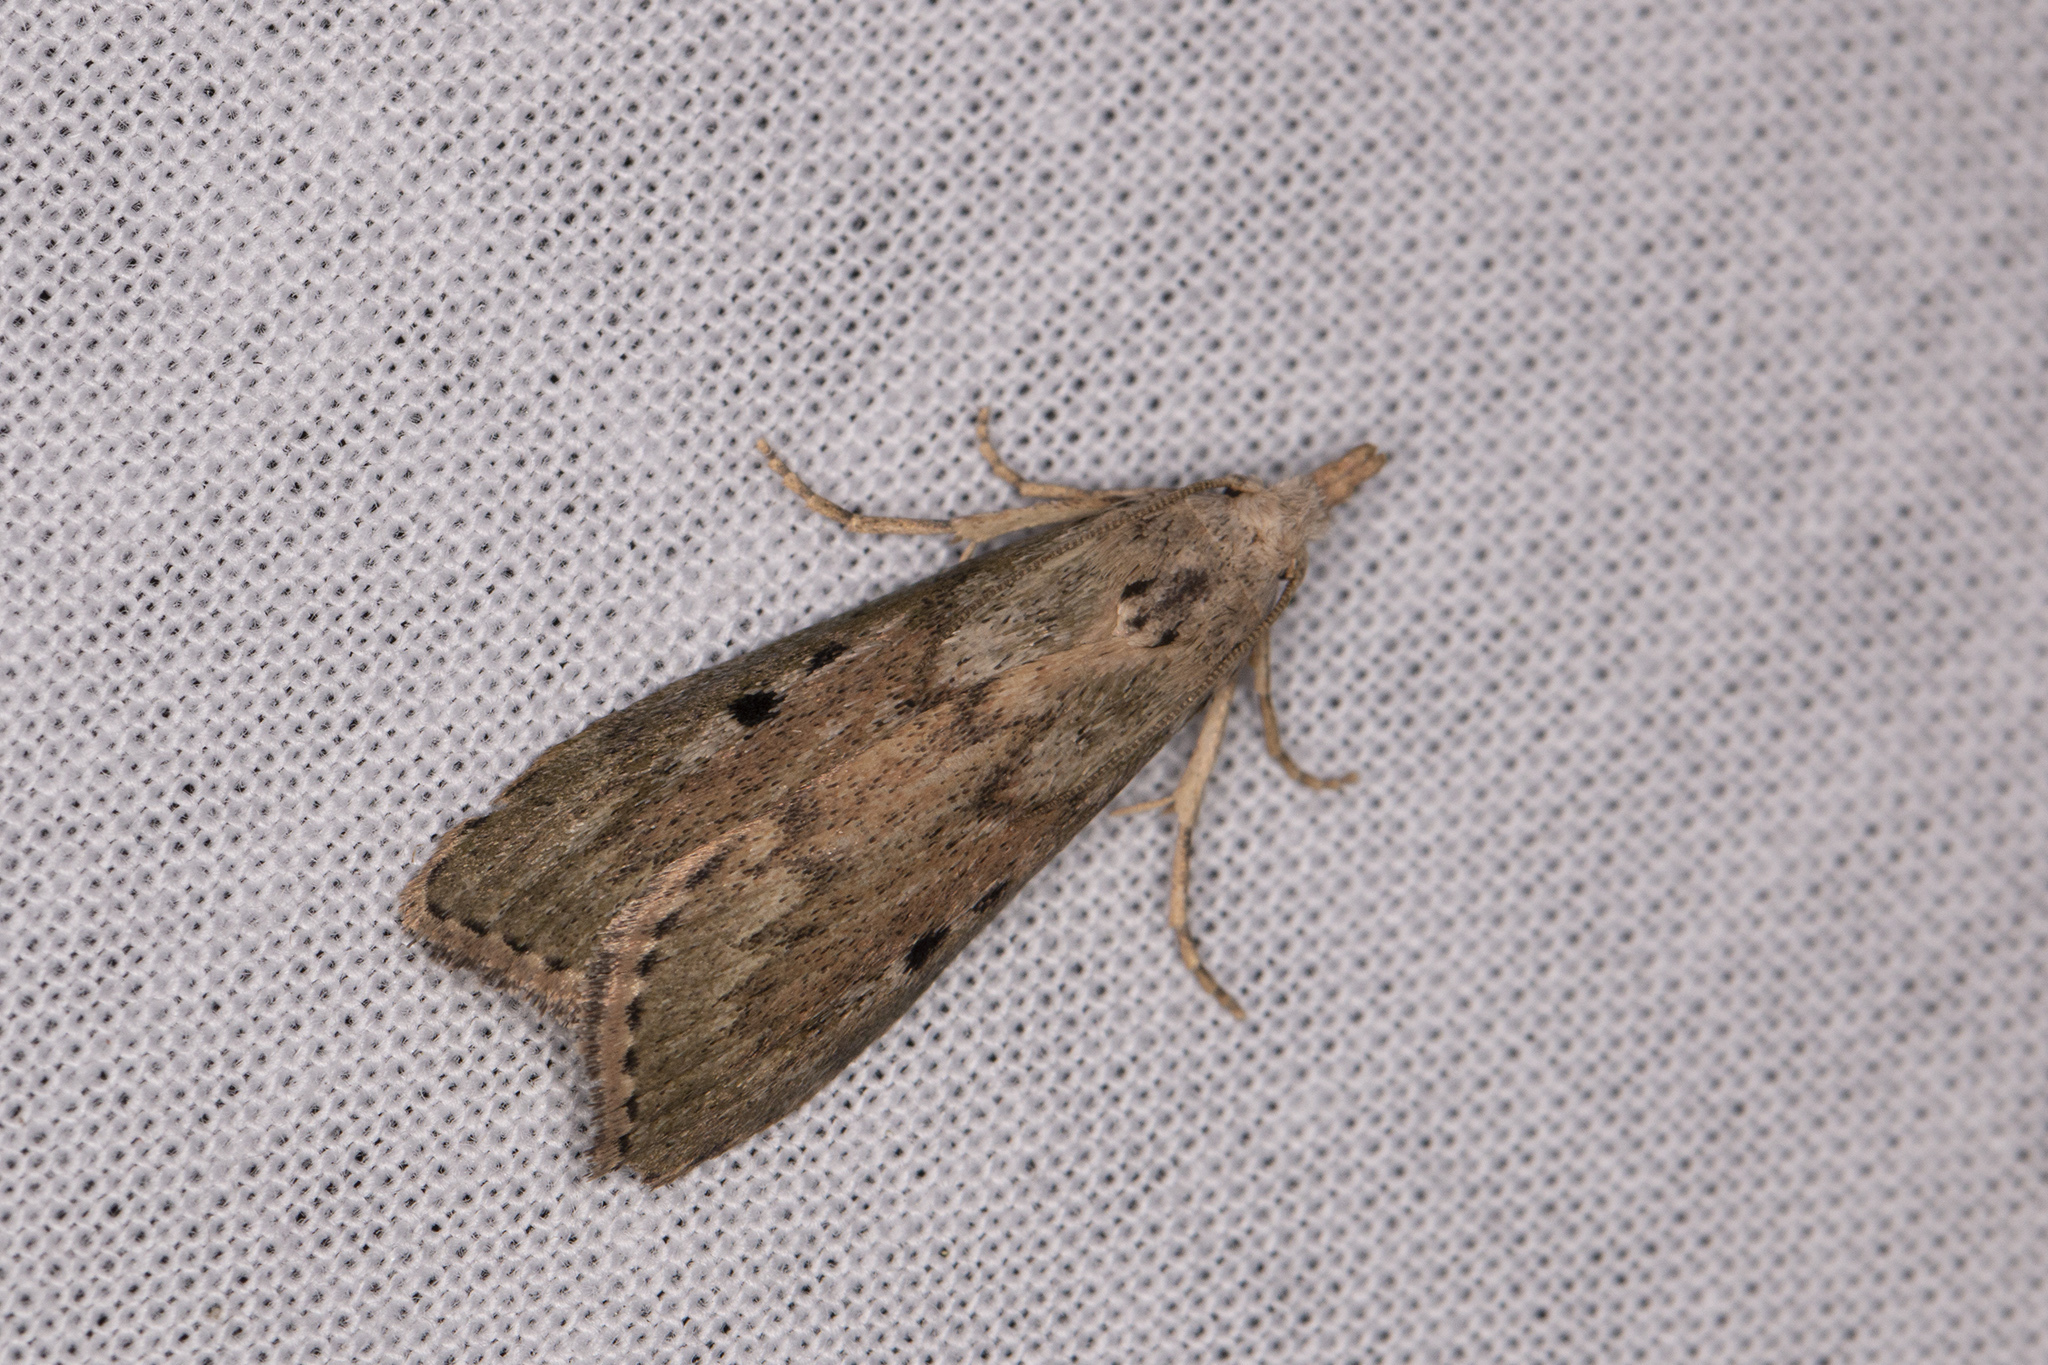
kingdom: Animalia
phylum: Arthropoda
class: Insecta
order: Lepidoptera
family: Pyralidae
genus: Aphomia
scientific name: Aphomia sociella
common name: Bee moth
